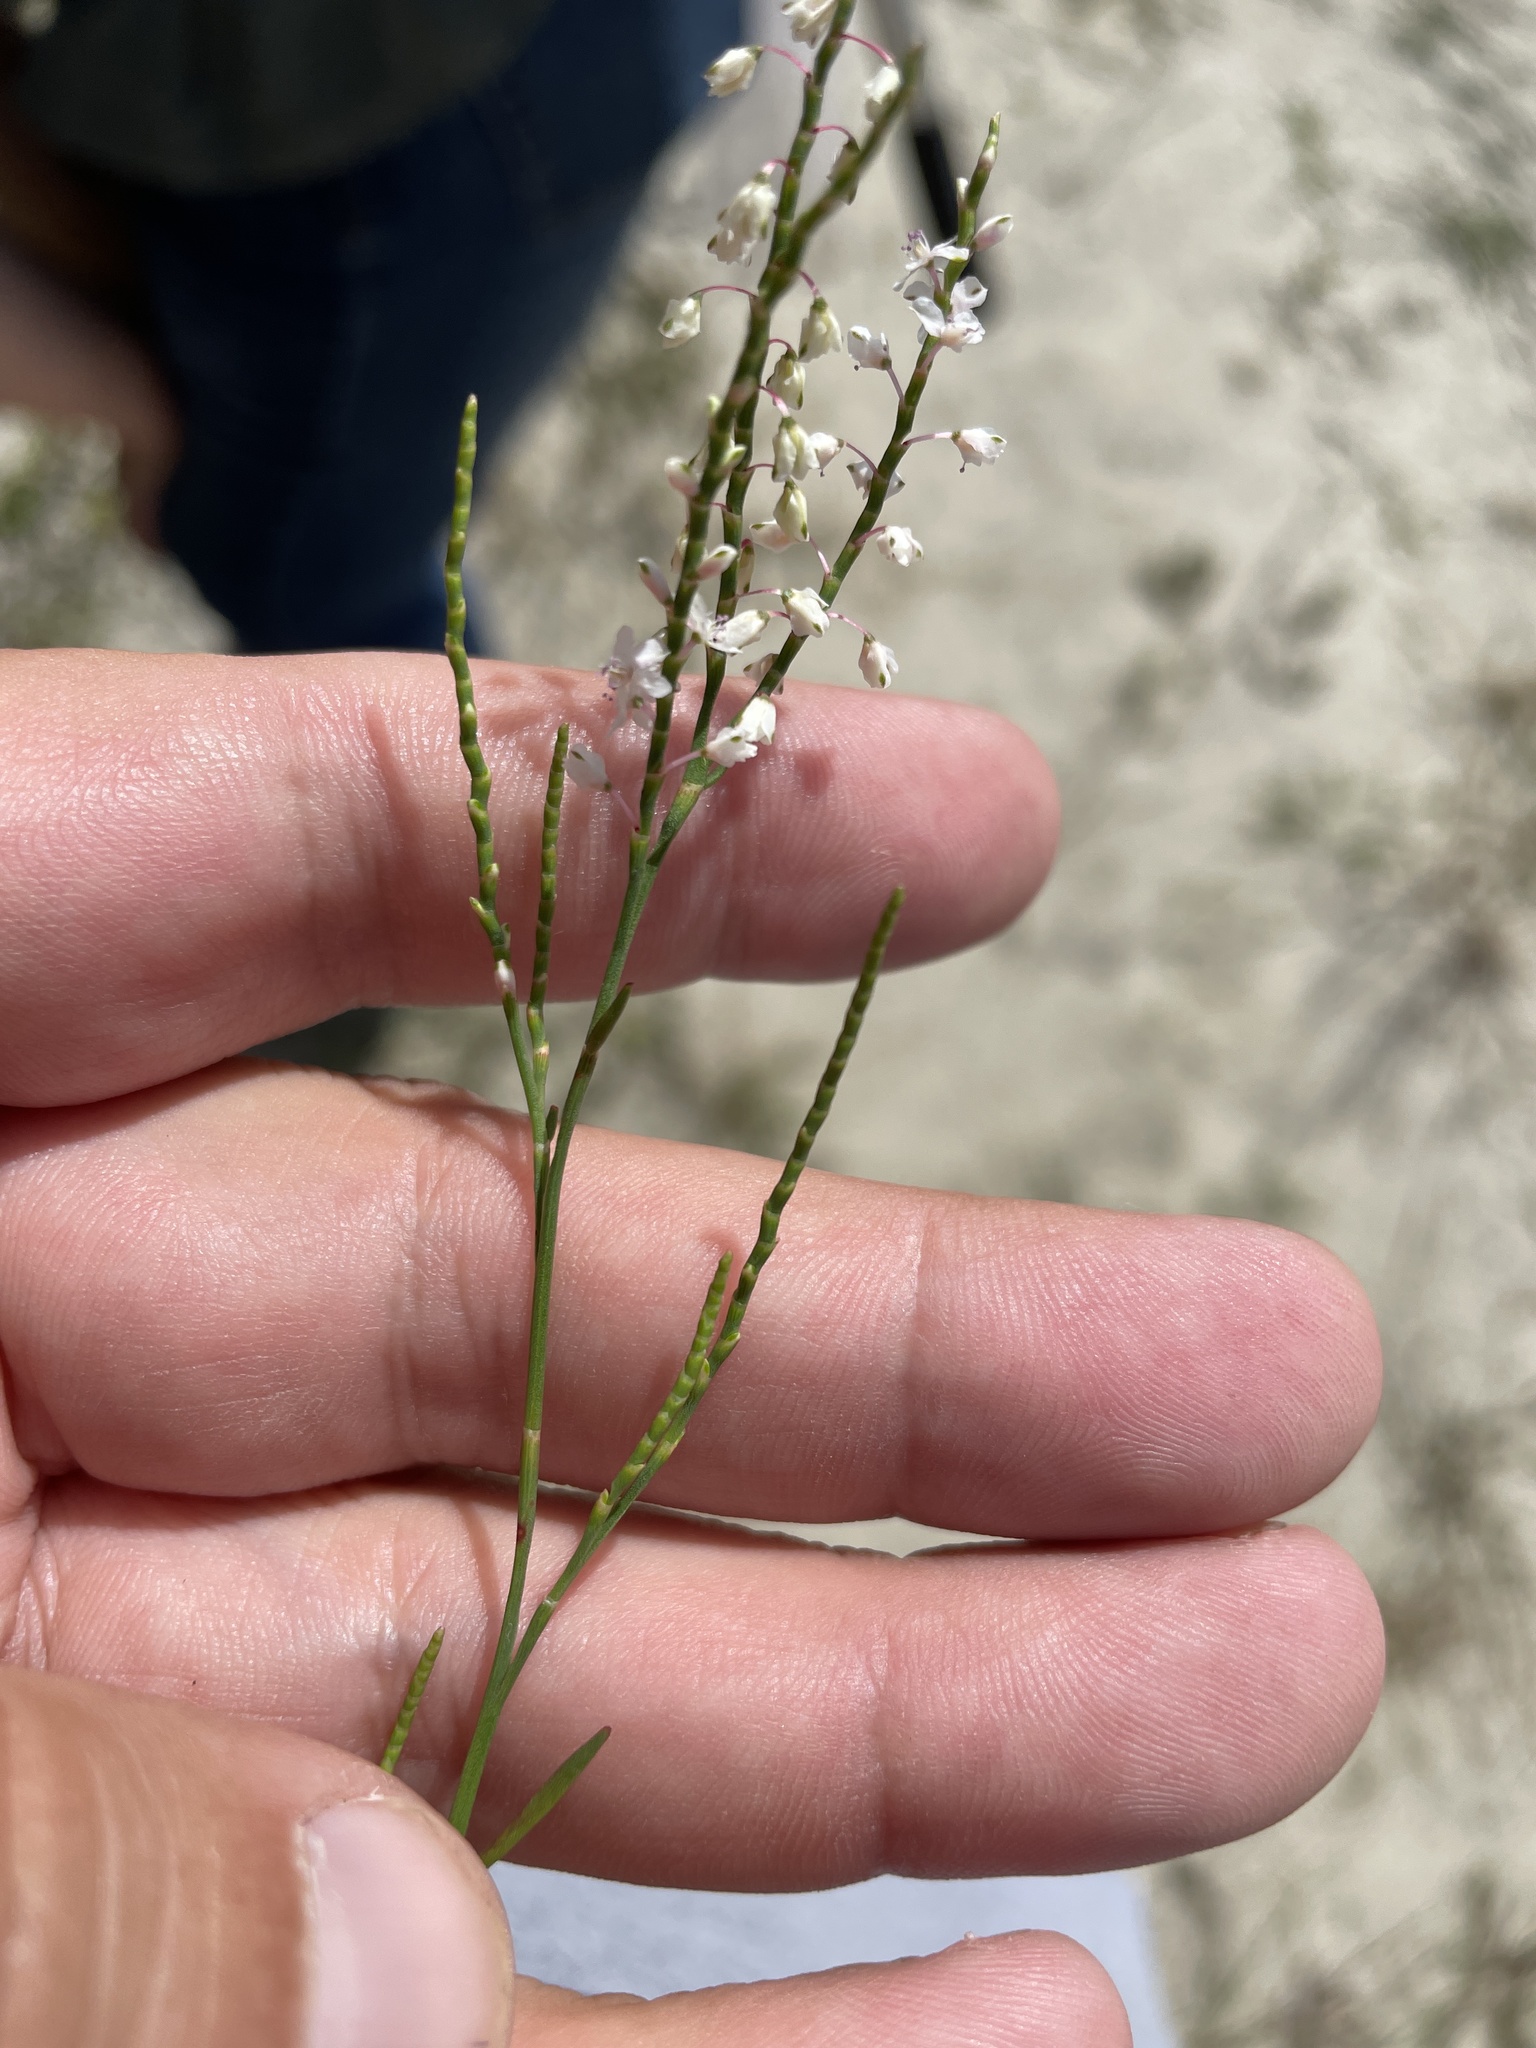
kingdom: Plantae
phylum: Tracheophyta
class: Magnoliopsida
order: Caryophyllales
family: Polygonaceae
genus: Polygonella
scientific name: Polygonella articulata
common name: Coastal jointweed
